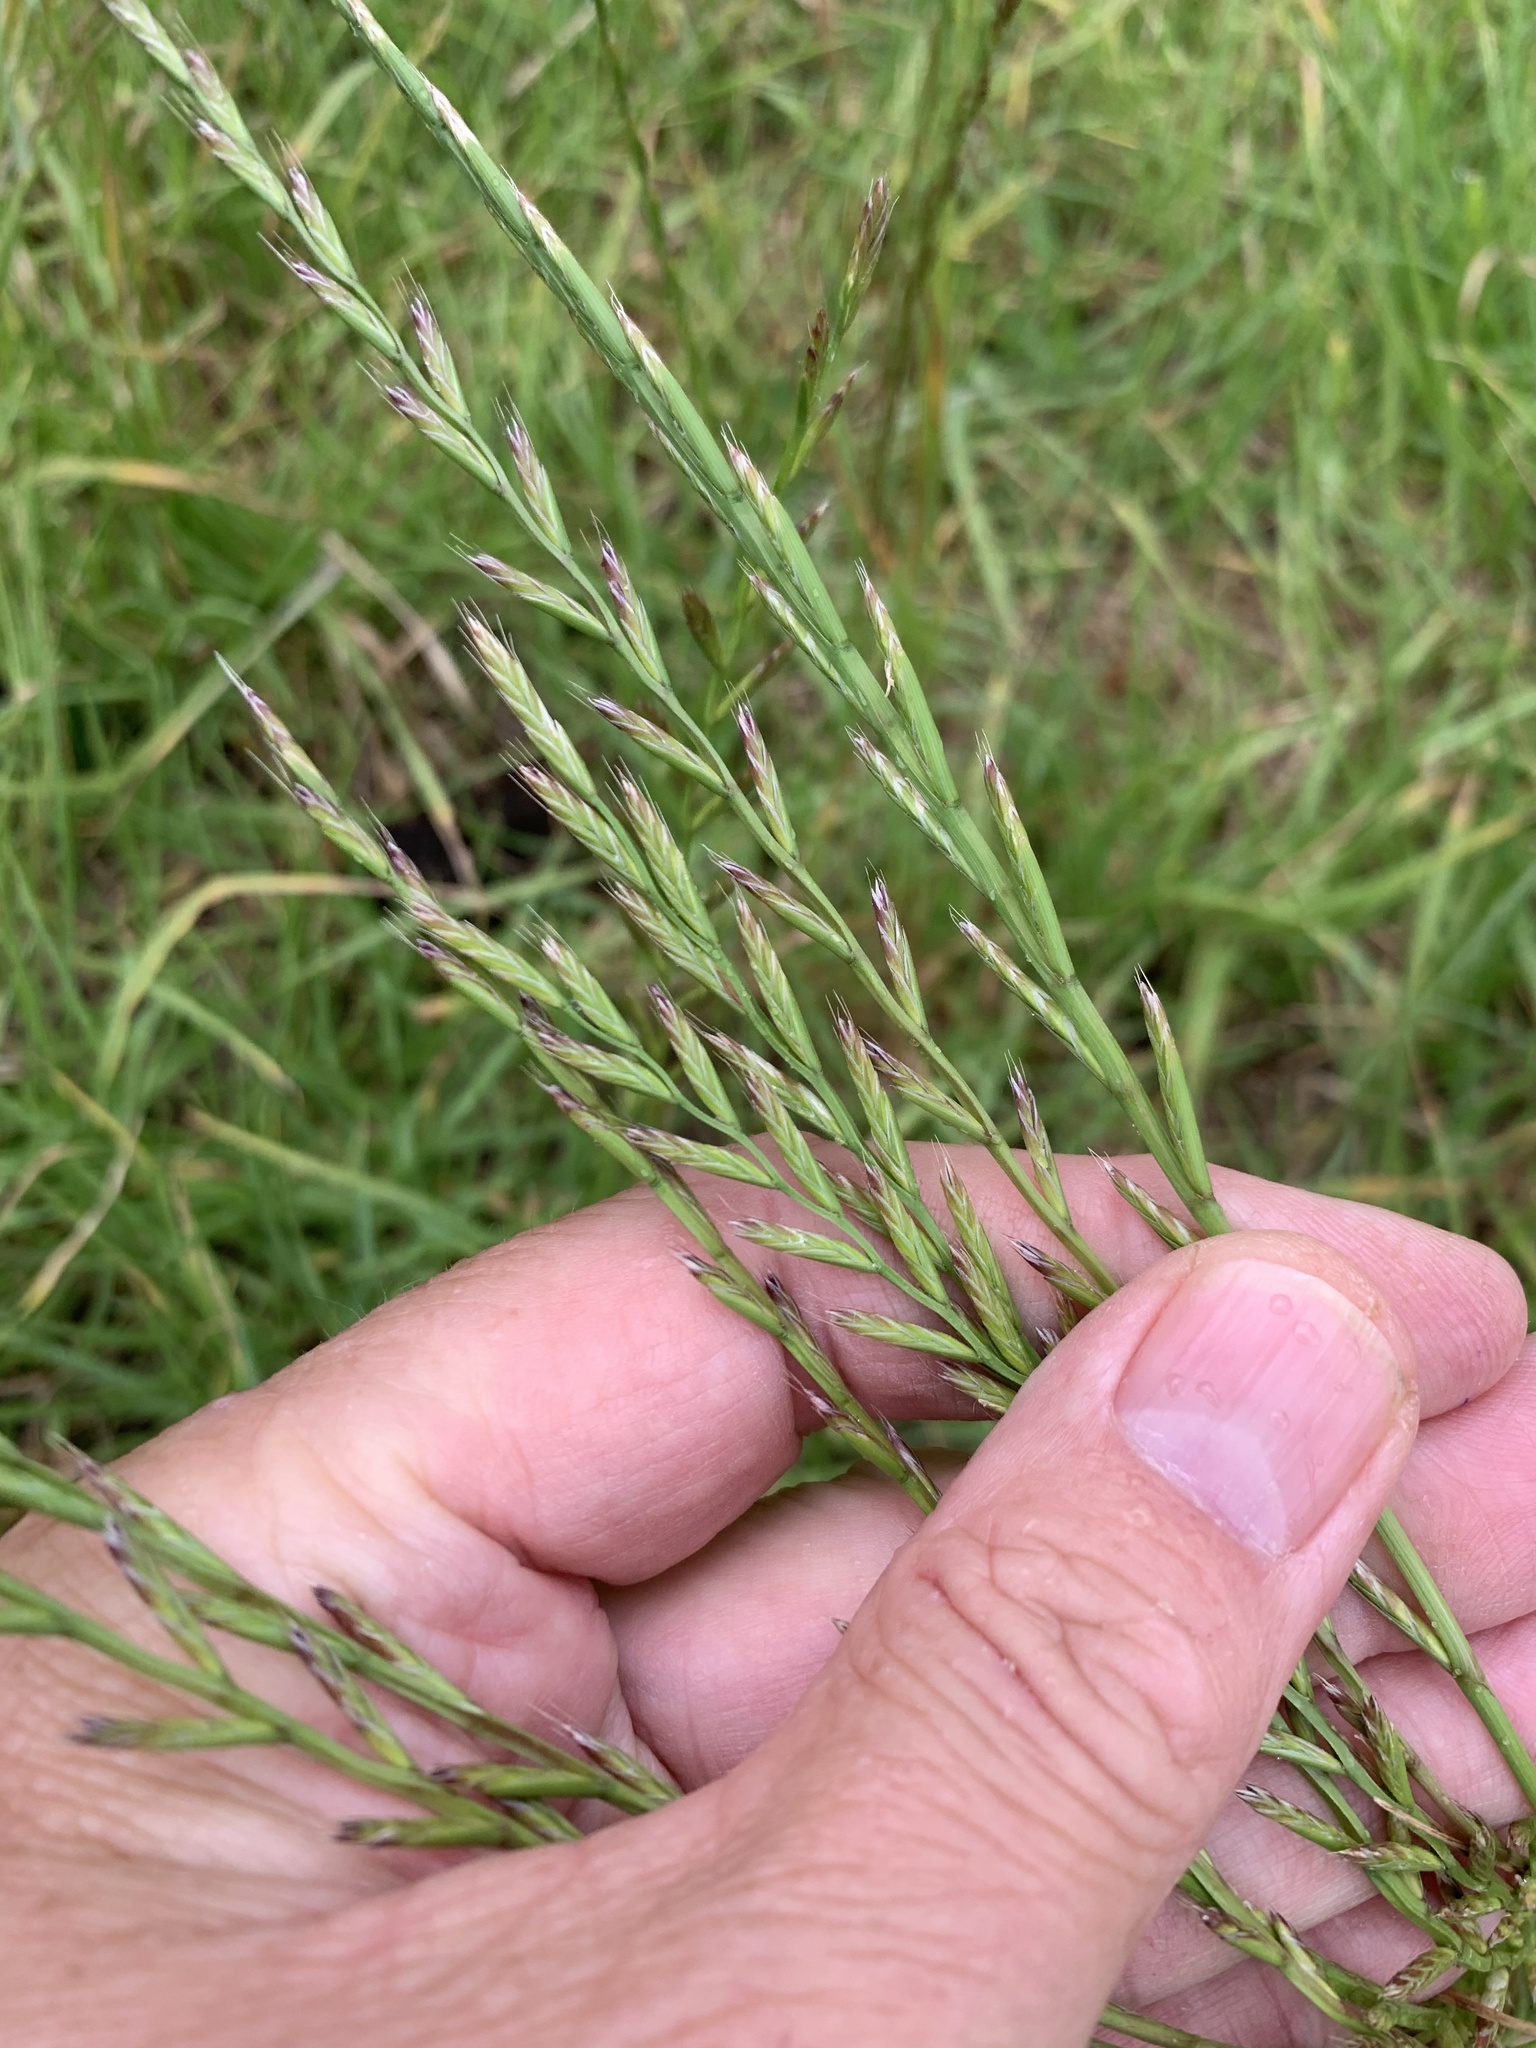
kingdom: Plantae
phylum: Tracheophyta
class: Liliopsida
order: Poales
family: Poaceae
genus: Lolium
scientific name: Lolium multiflorum
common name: Annual ryegrass
